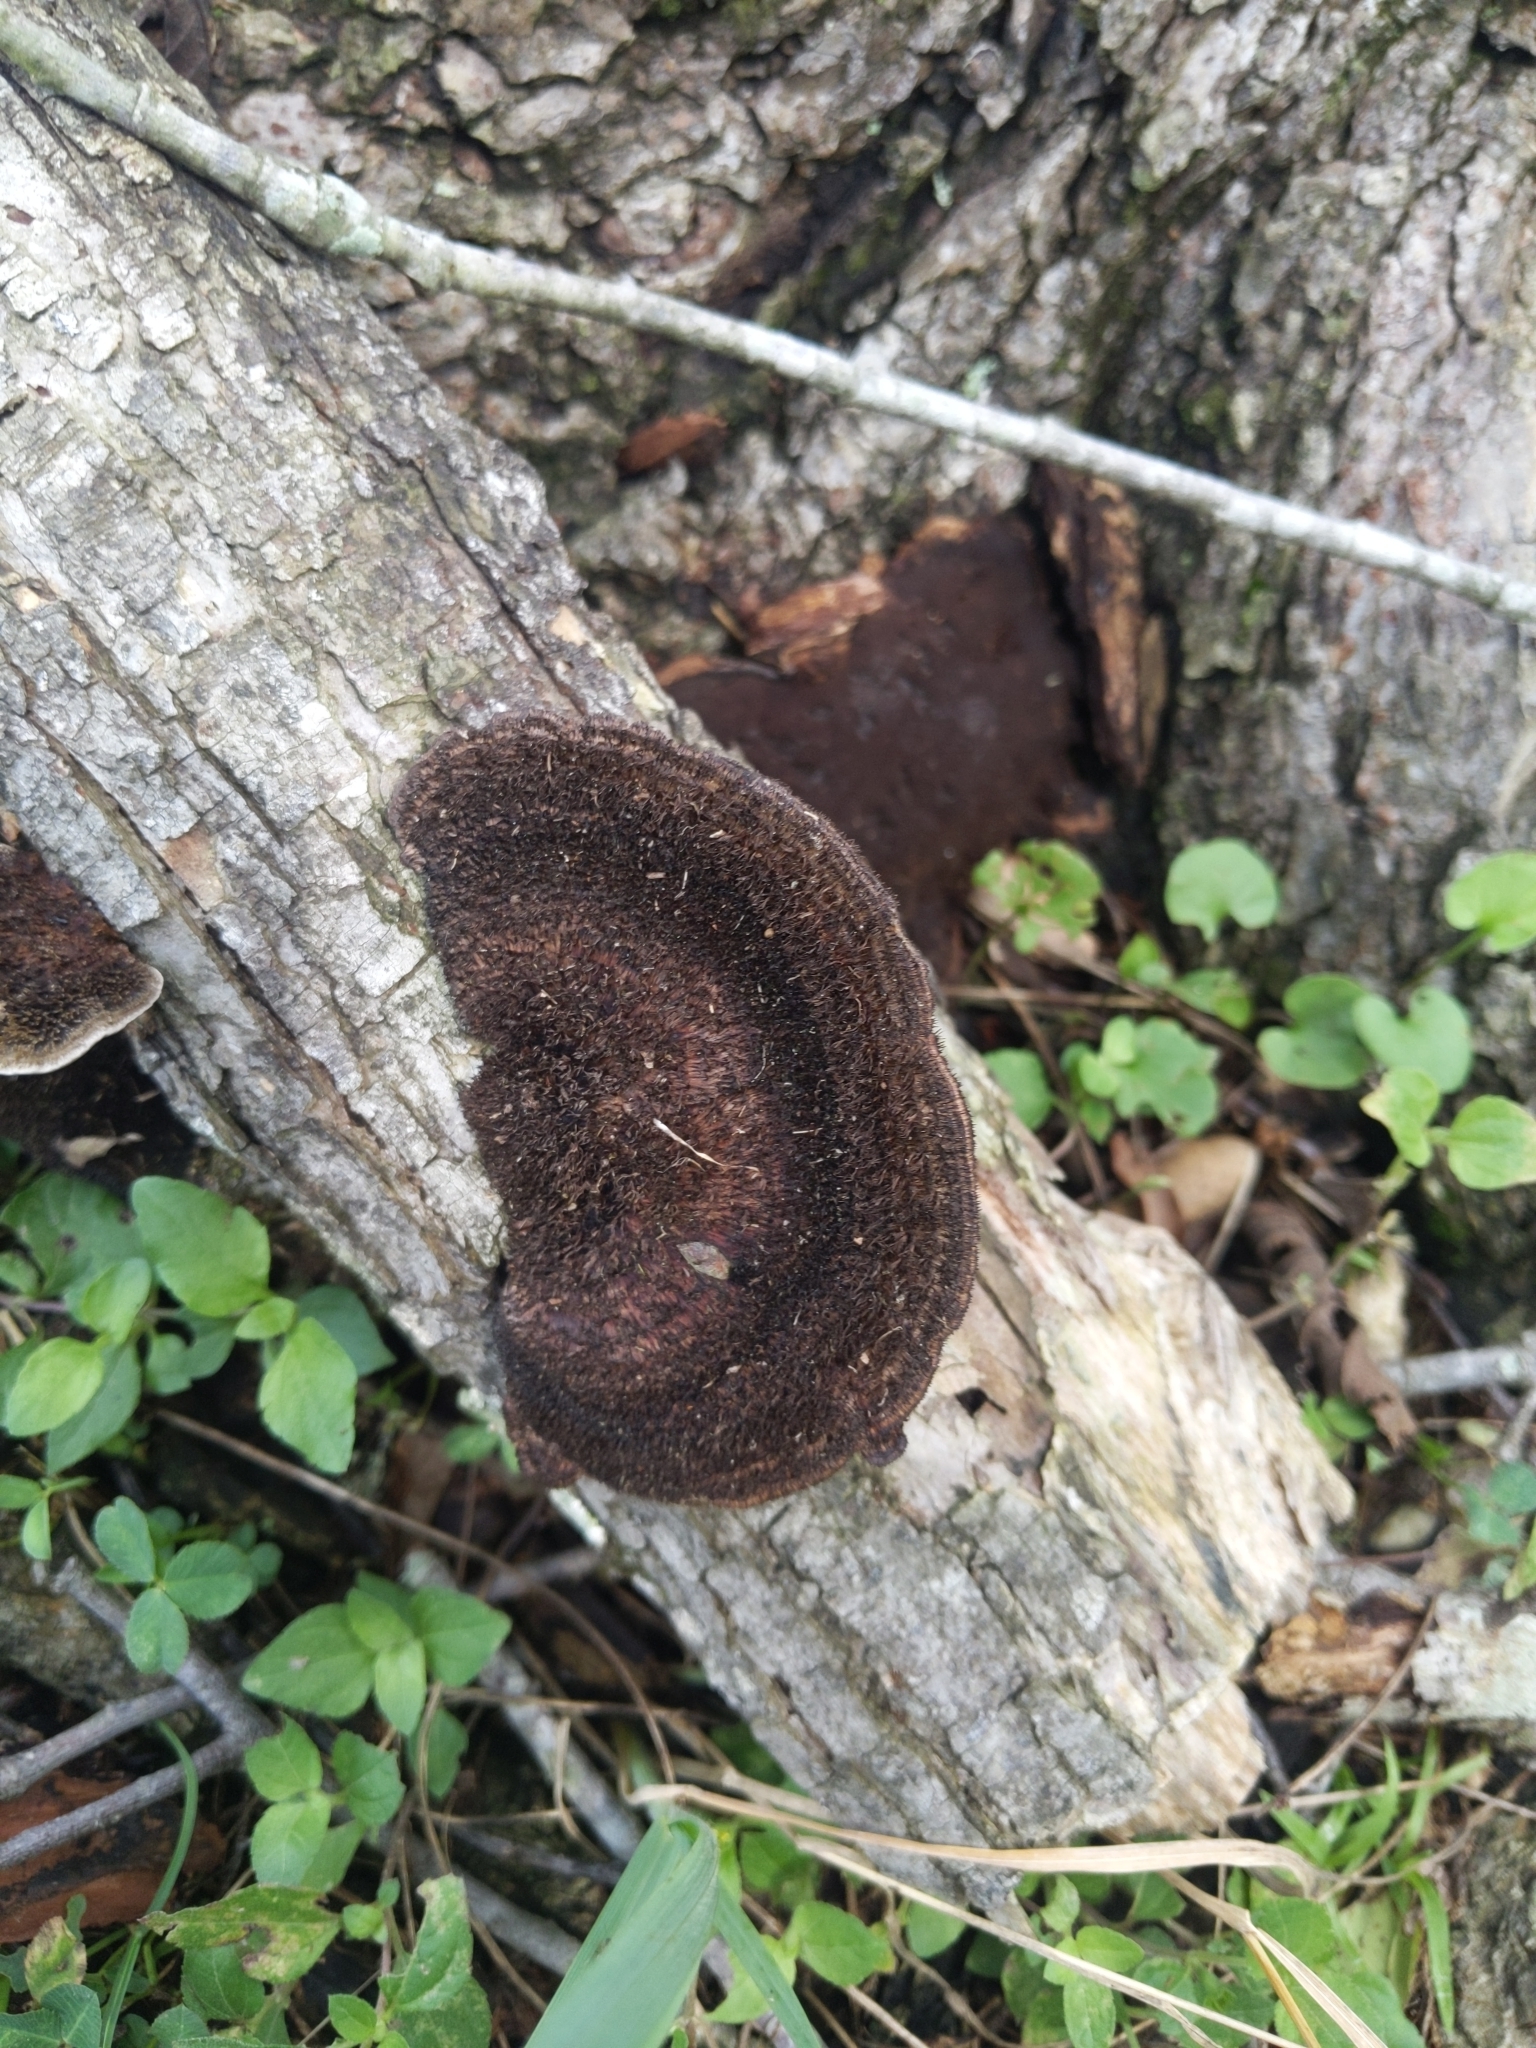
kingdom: Fungi
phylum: Basidiomycota
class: Agaricomycetes
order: Polyporales
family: Cerrenaceae
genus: Cerrena
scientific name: Cerrena hydnoides
